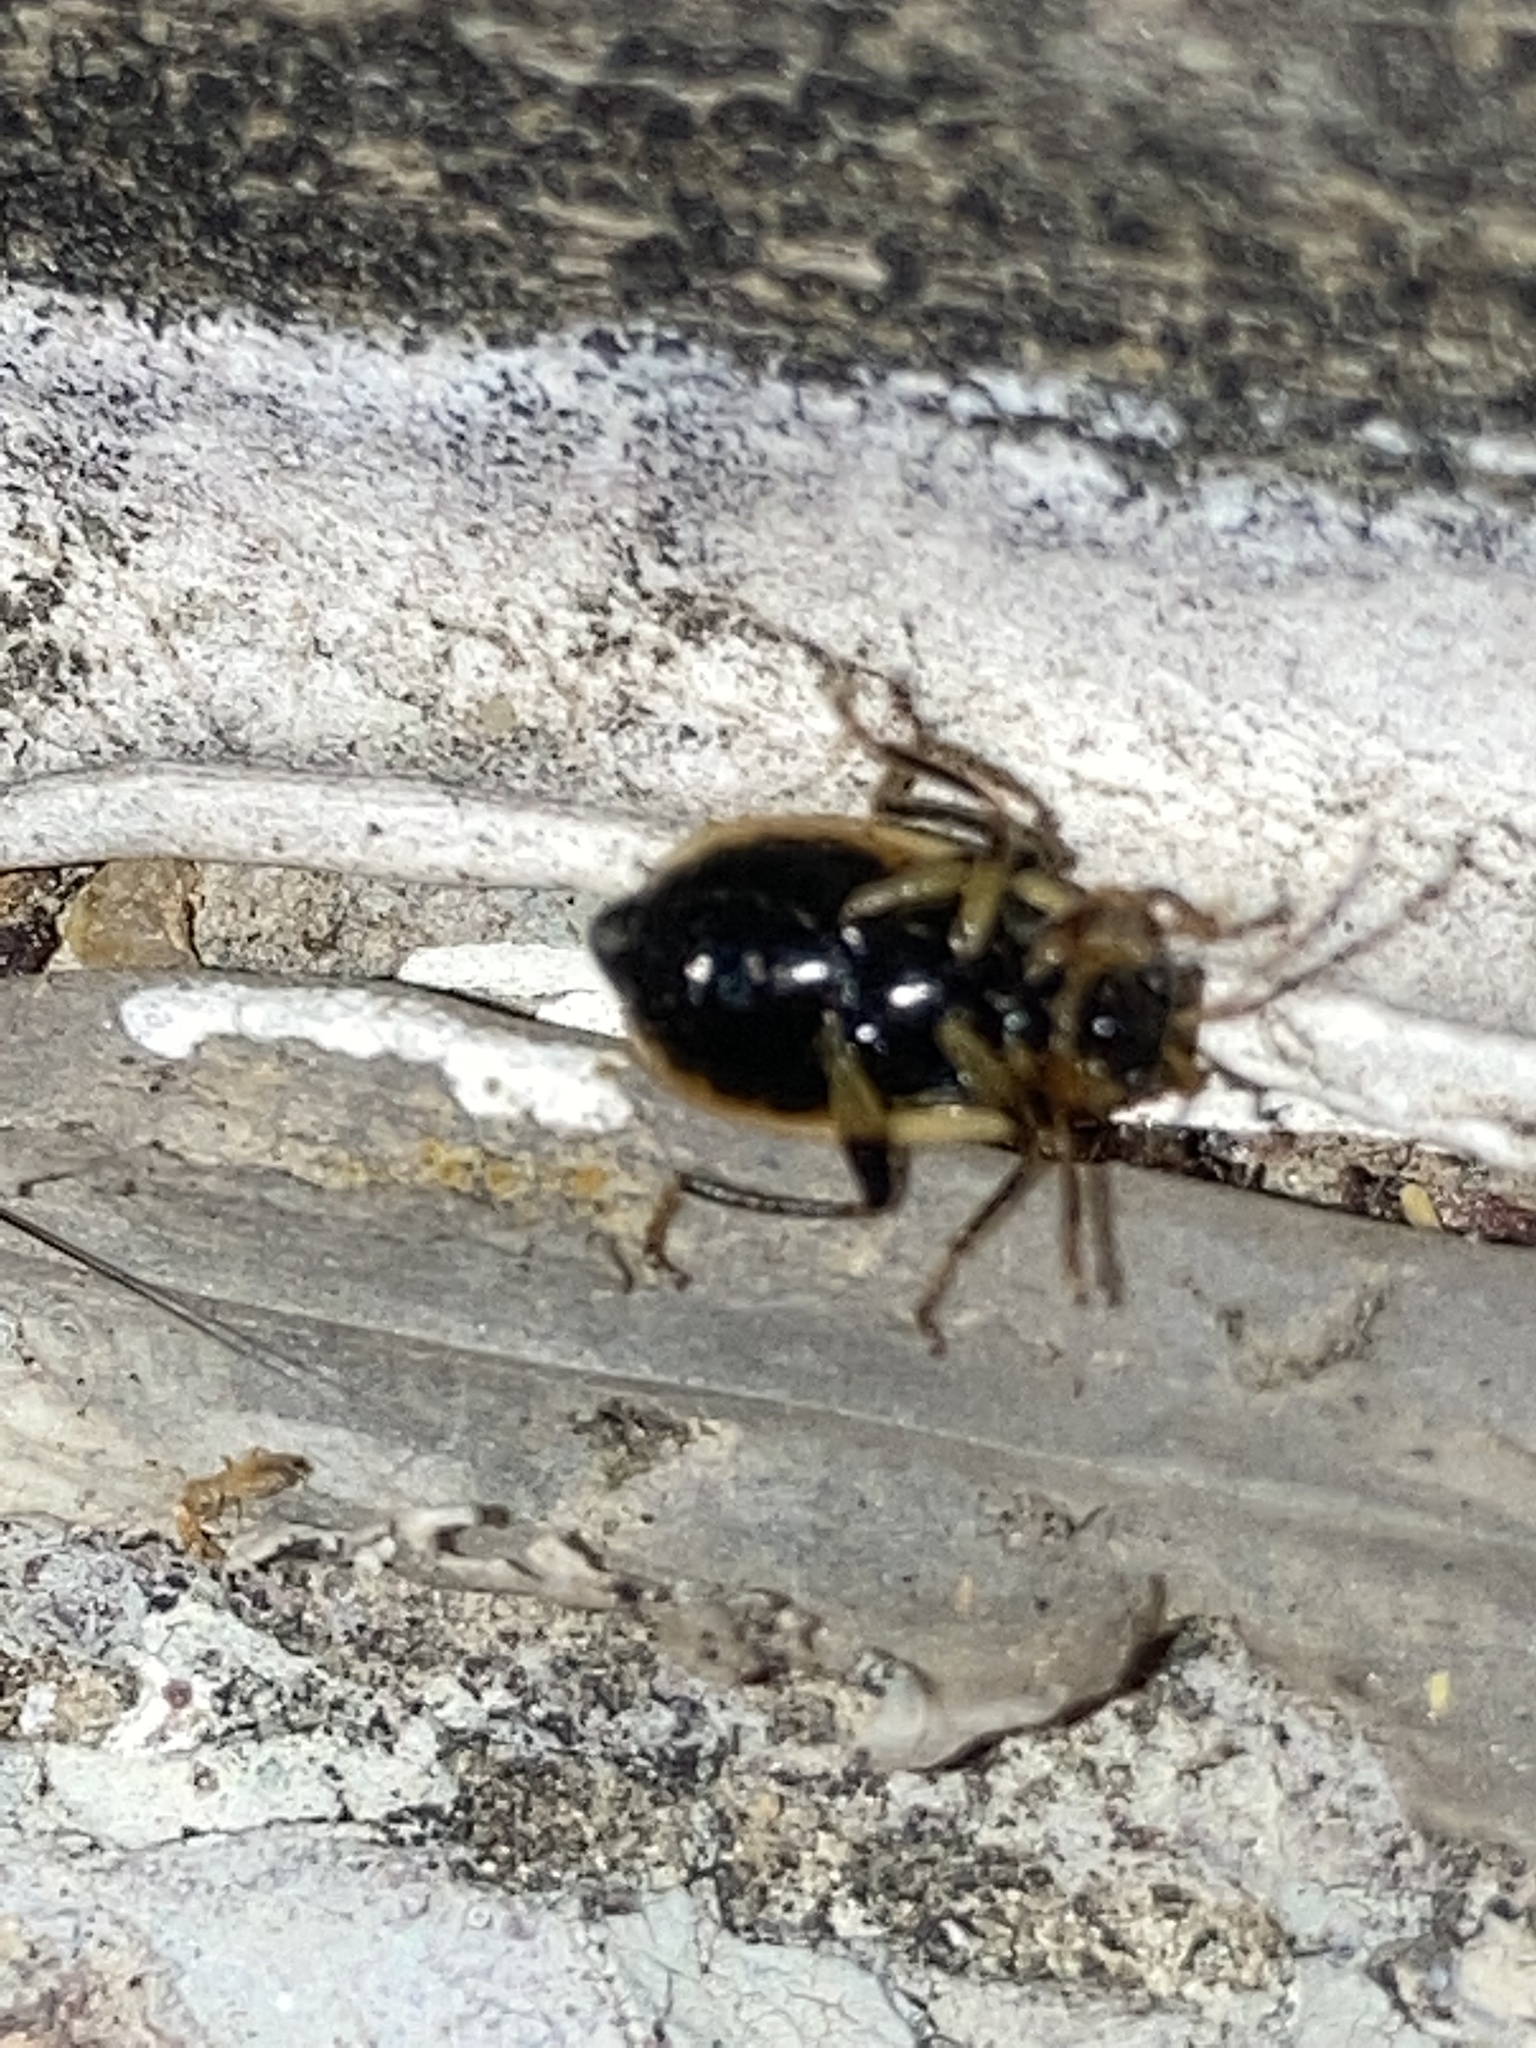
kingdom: Animalia
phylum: Arthropoda
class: Insecta
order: Coleoptera
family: Chrysomelidae
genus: Cerotoma
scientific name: Cerotoma trifurcata
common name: Bean leaf beetle
